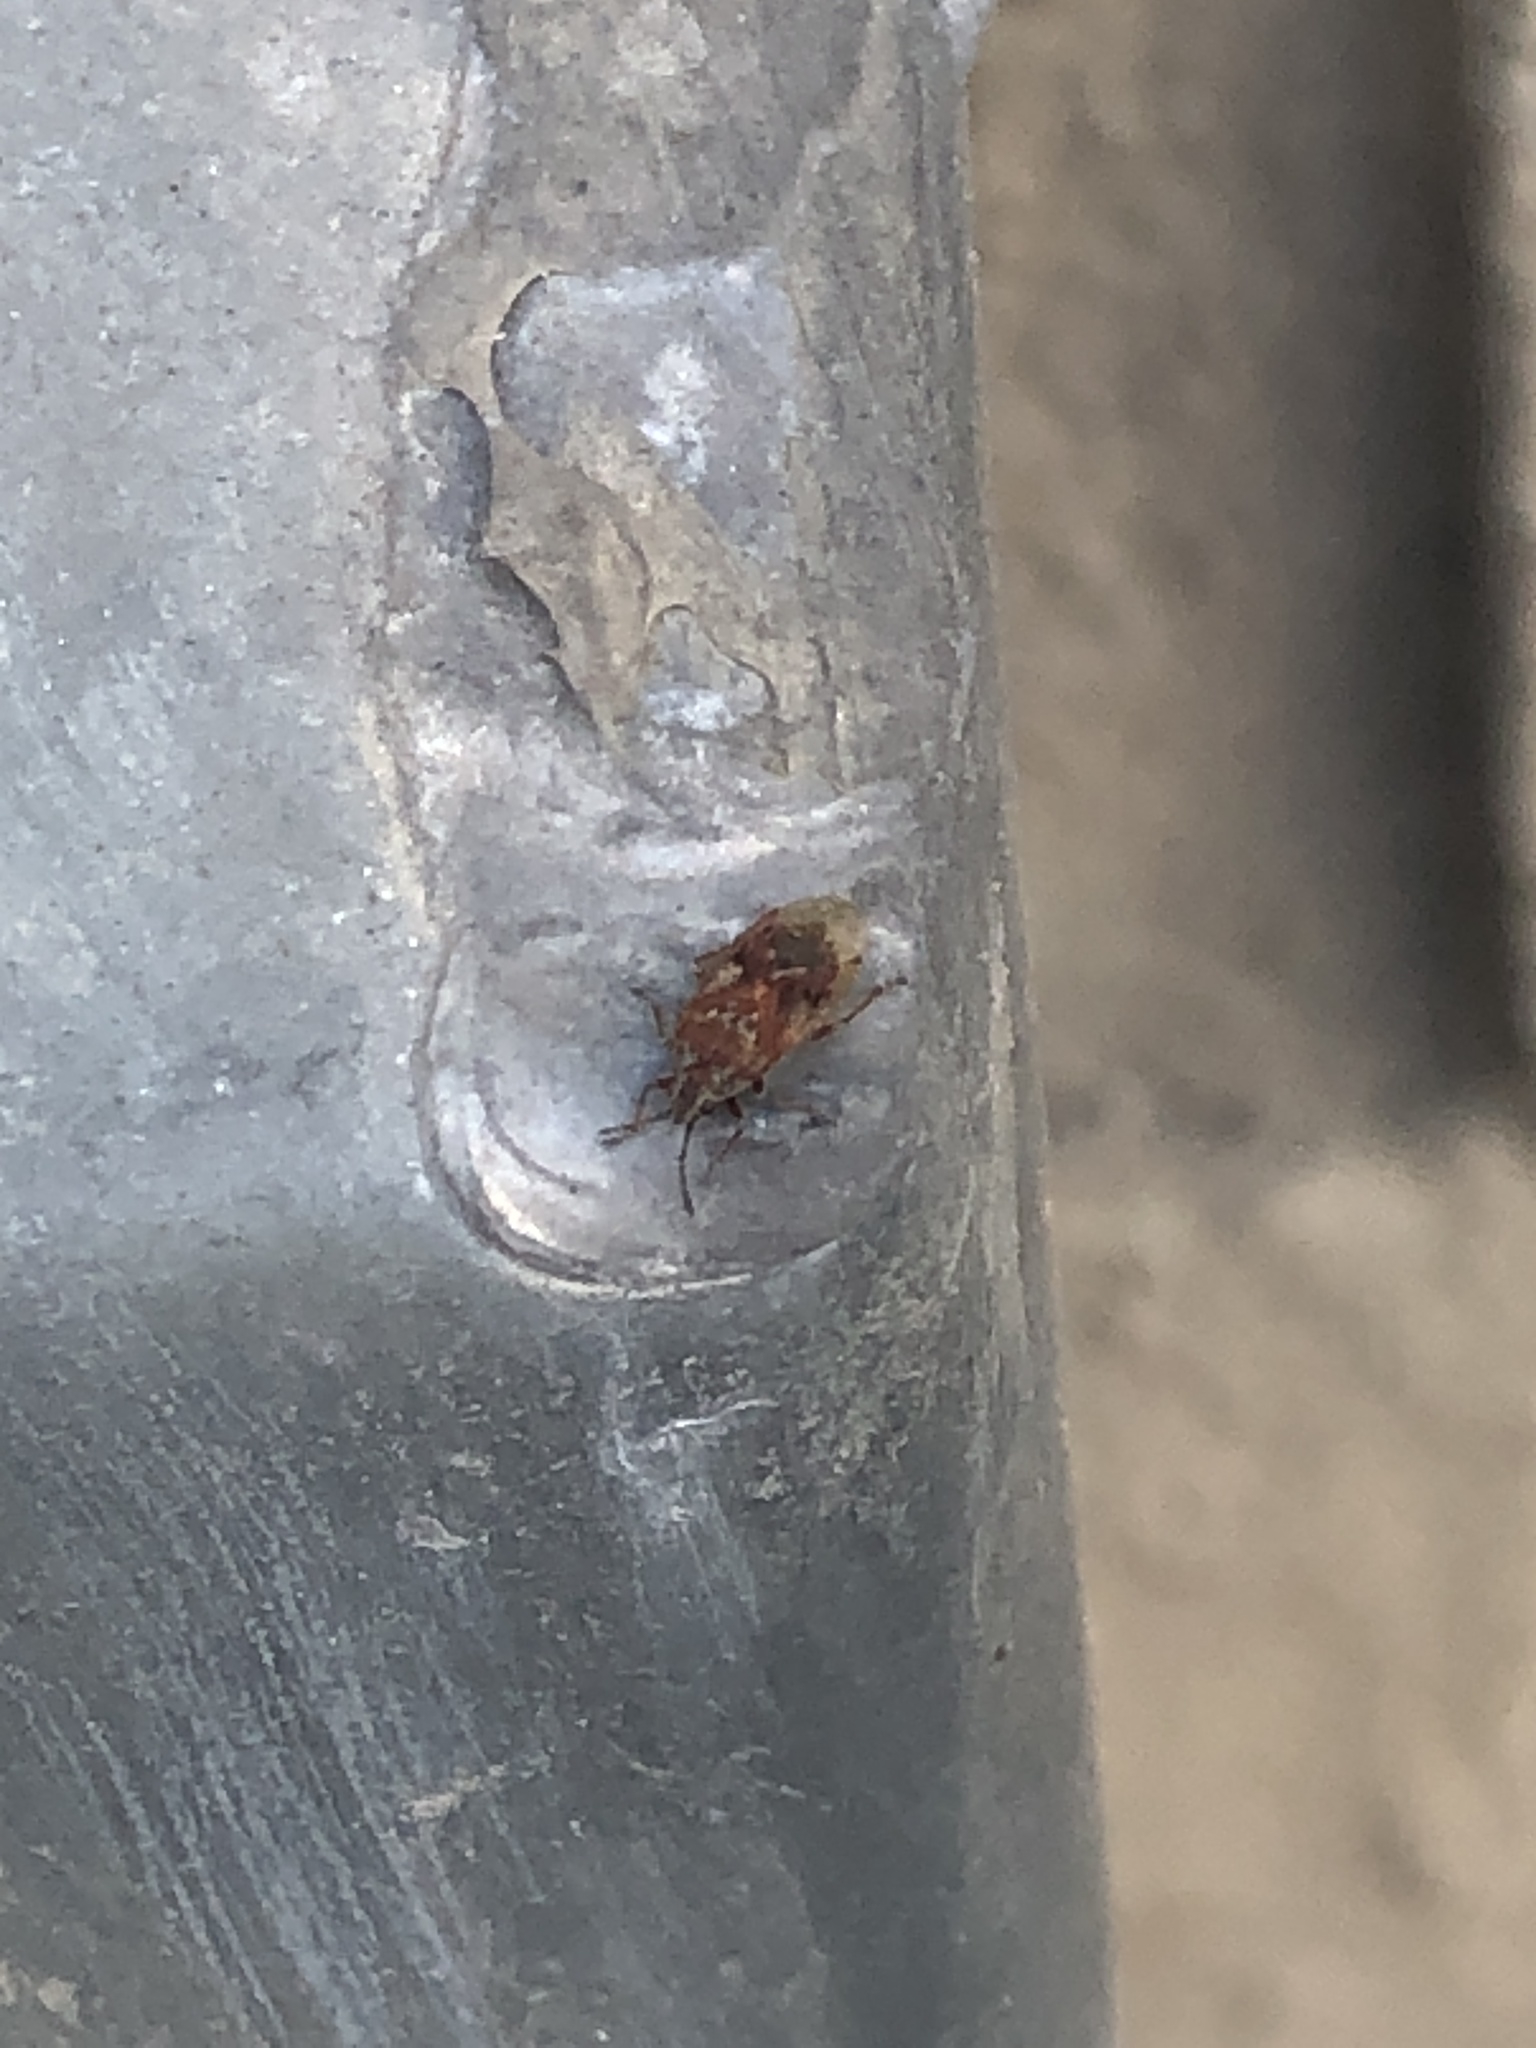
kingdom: Animalia
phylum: Arthropoda
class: Insecta
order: Hemiptera
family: Lygaeidae
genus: Kleidocerys
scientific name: Kleidocerys resedae
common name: Birch catkin bug
